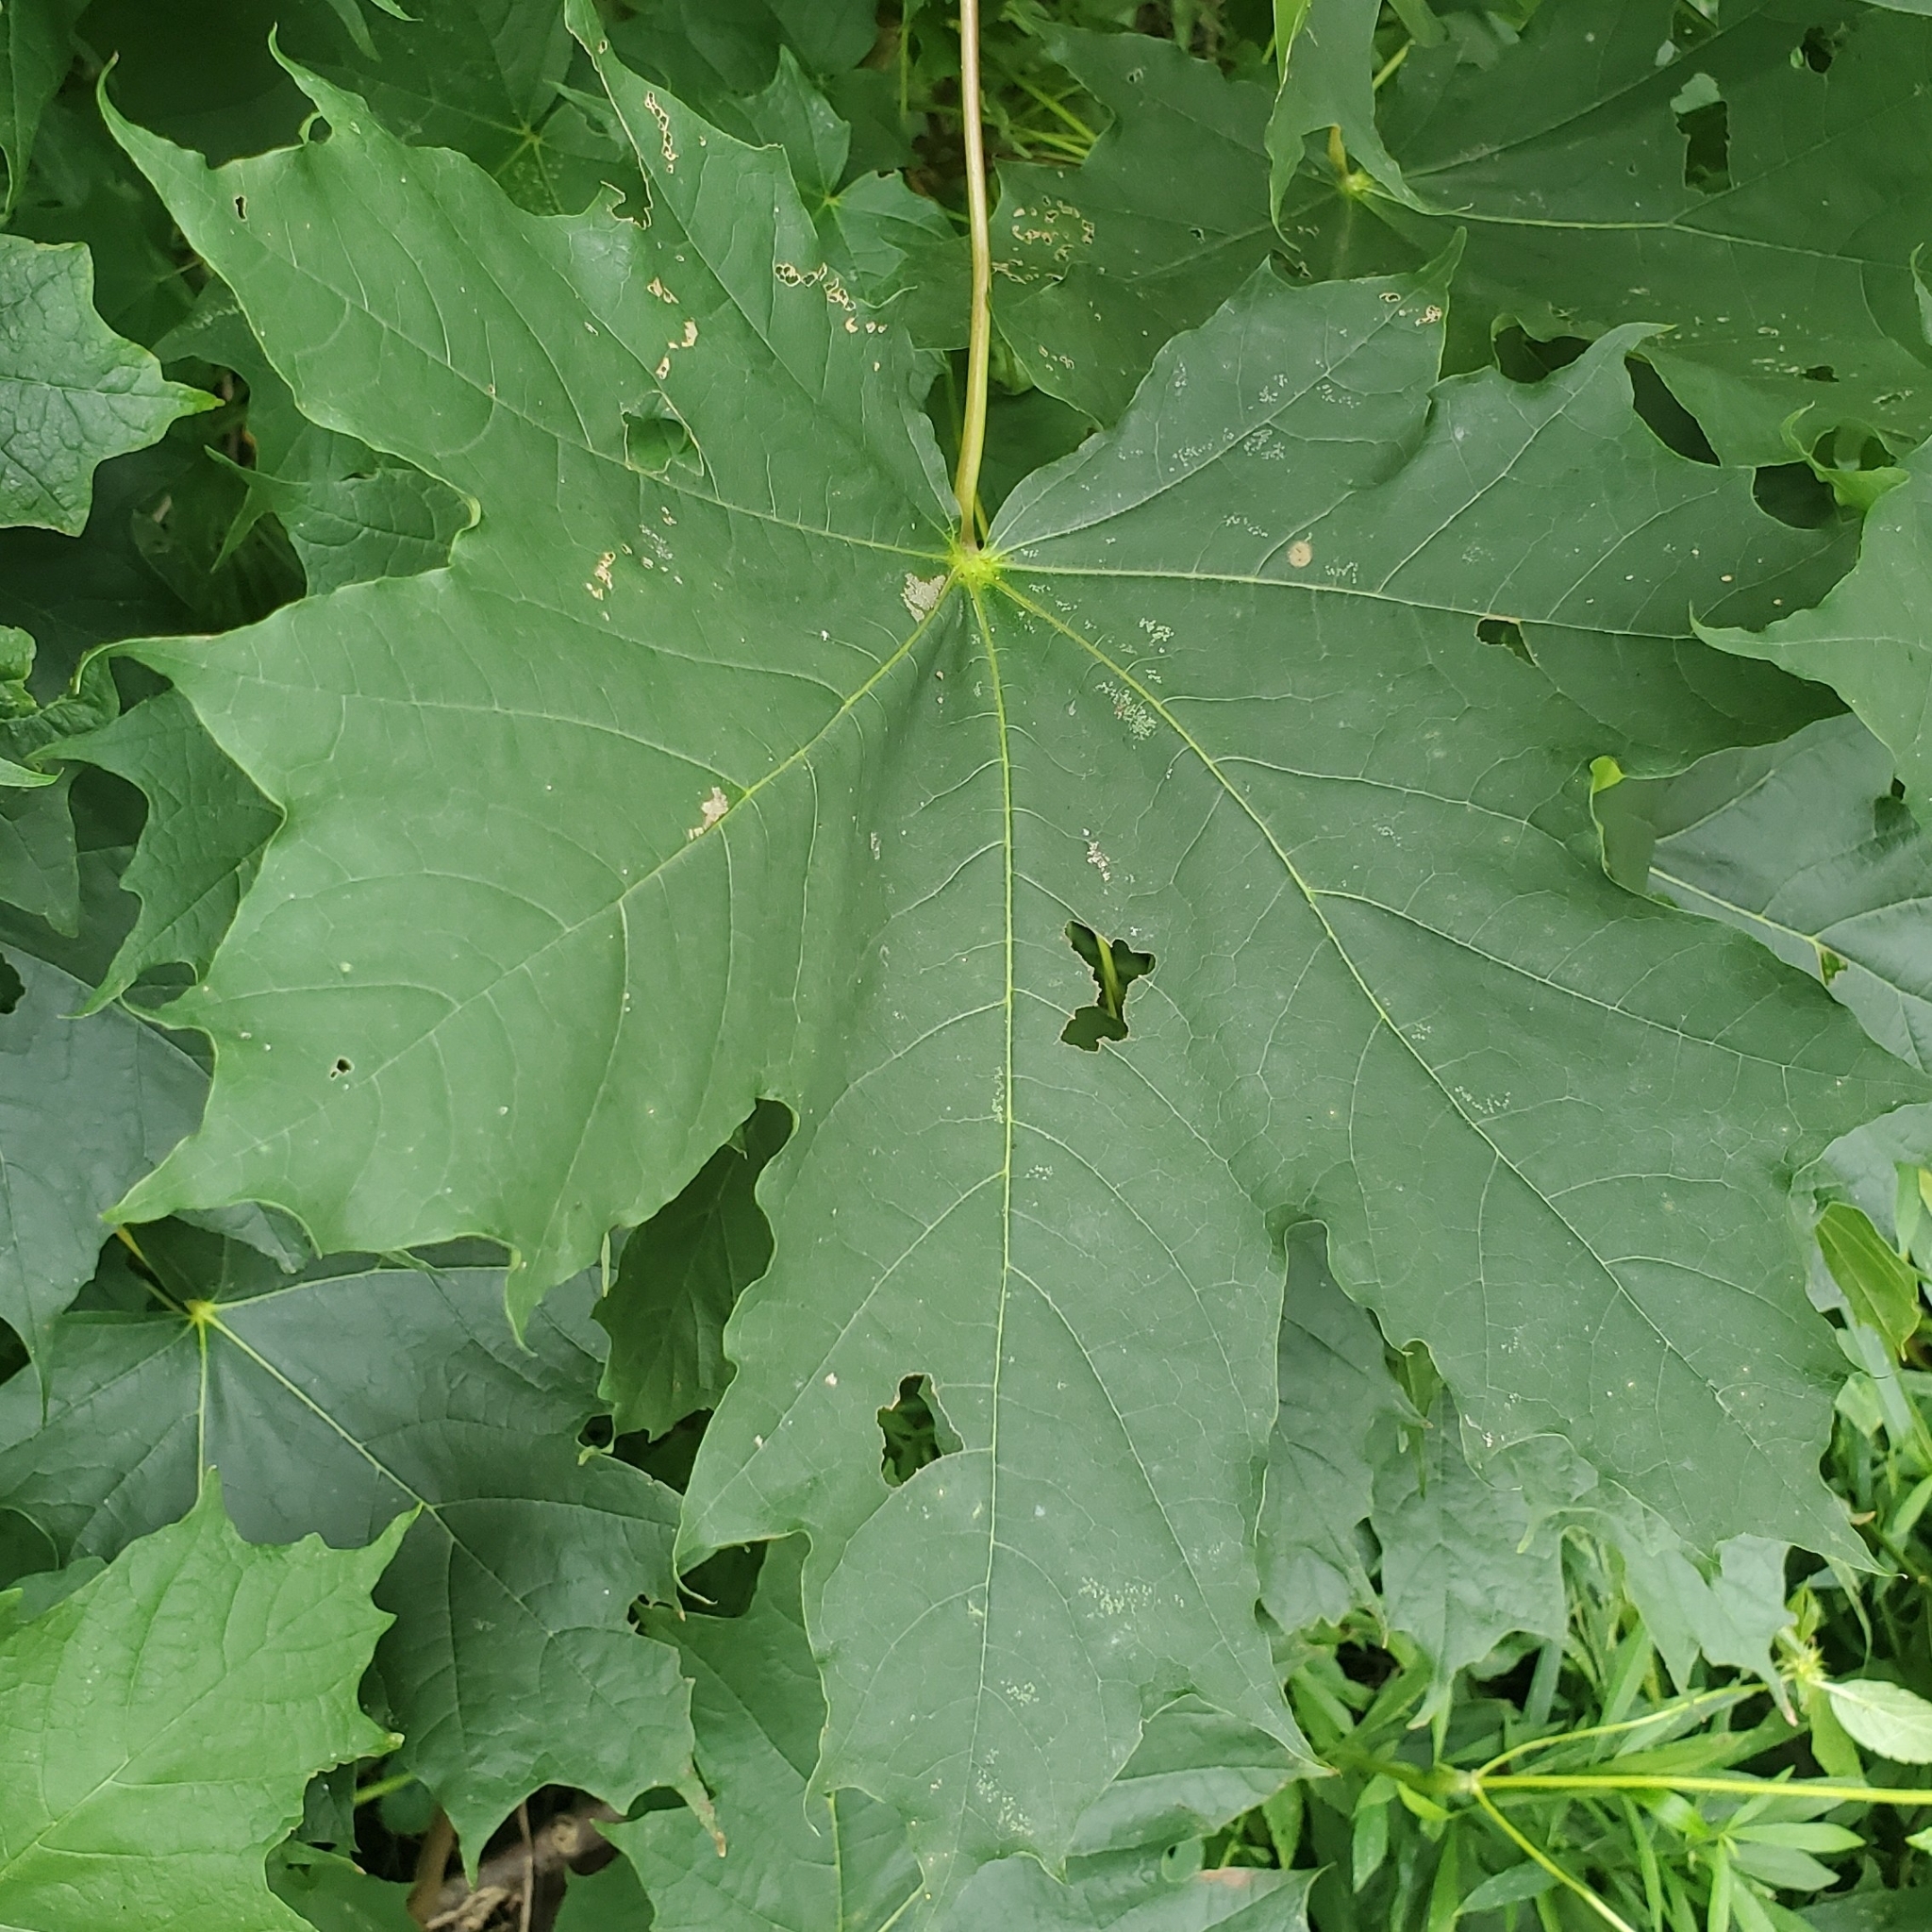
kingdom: Plantae
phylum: Tracheophyta
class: Magnoliopsida
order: Sapindales
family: Sapindaceae
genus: Acer
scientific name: Acer platanoides
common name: Norway maple
